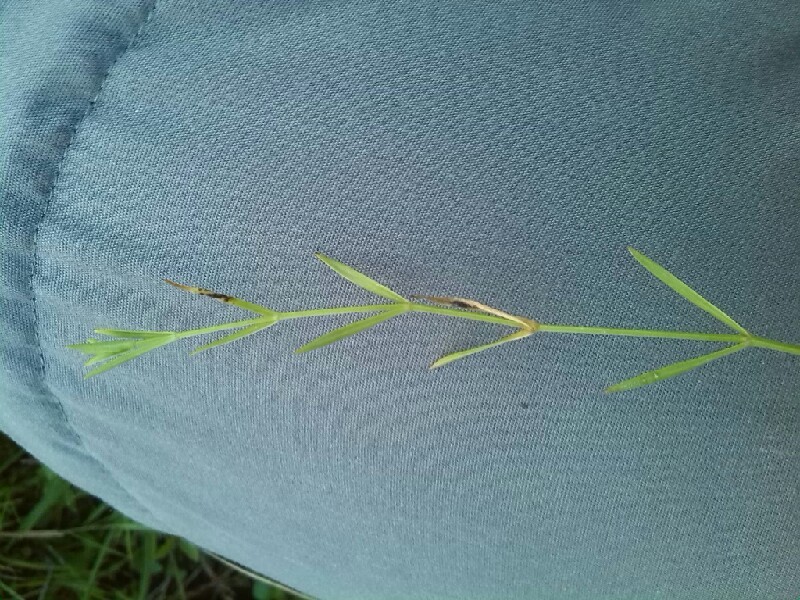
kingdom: Plantae
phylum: Tracheophyta
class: Magnoliopsida
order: Lamiales
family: Plantaginaceae
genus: Veronica
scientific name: Veronica scutellata
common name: Marsh speedwell
